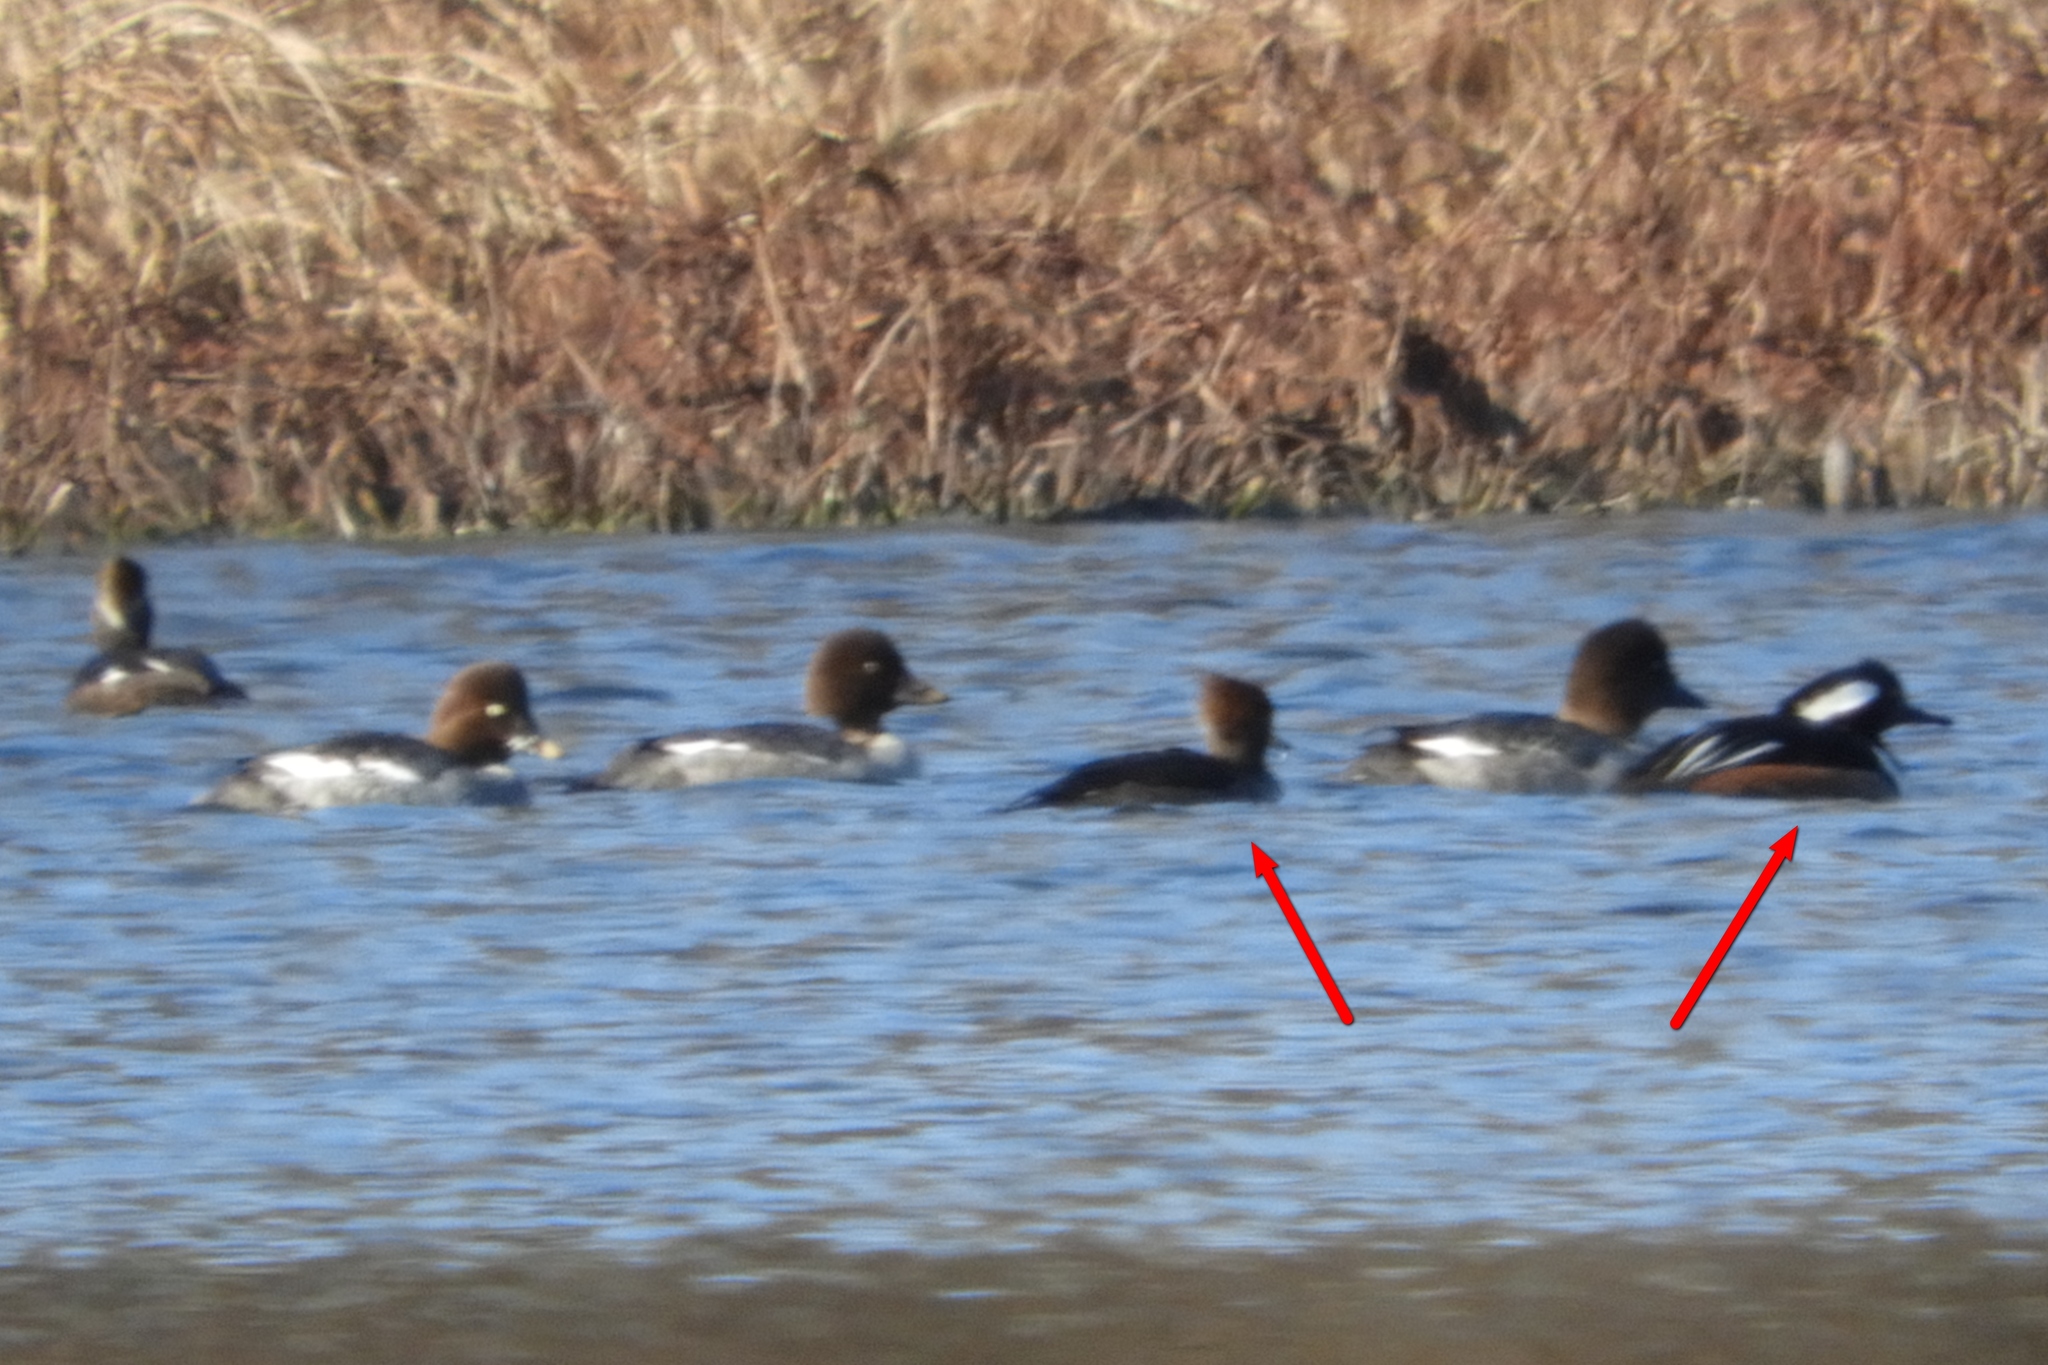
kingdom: Animalia
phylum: Chordata
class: Aves
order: Anseriformes
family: Anatidae
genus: Lophodytes
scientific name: Lophodytes cucullatus
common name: Hooded merganser
